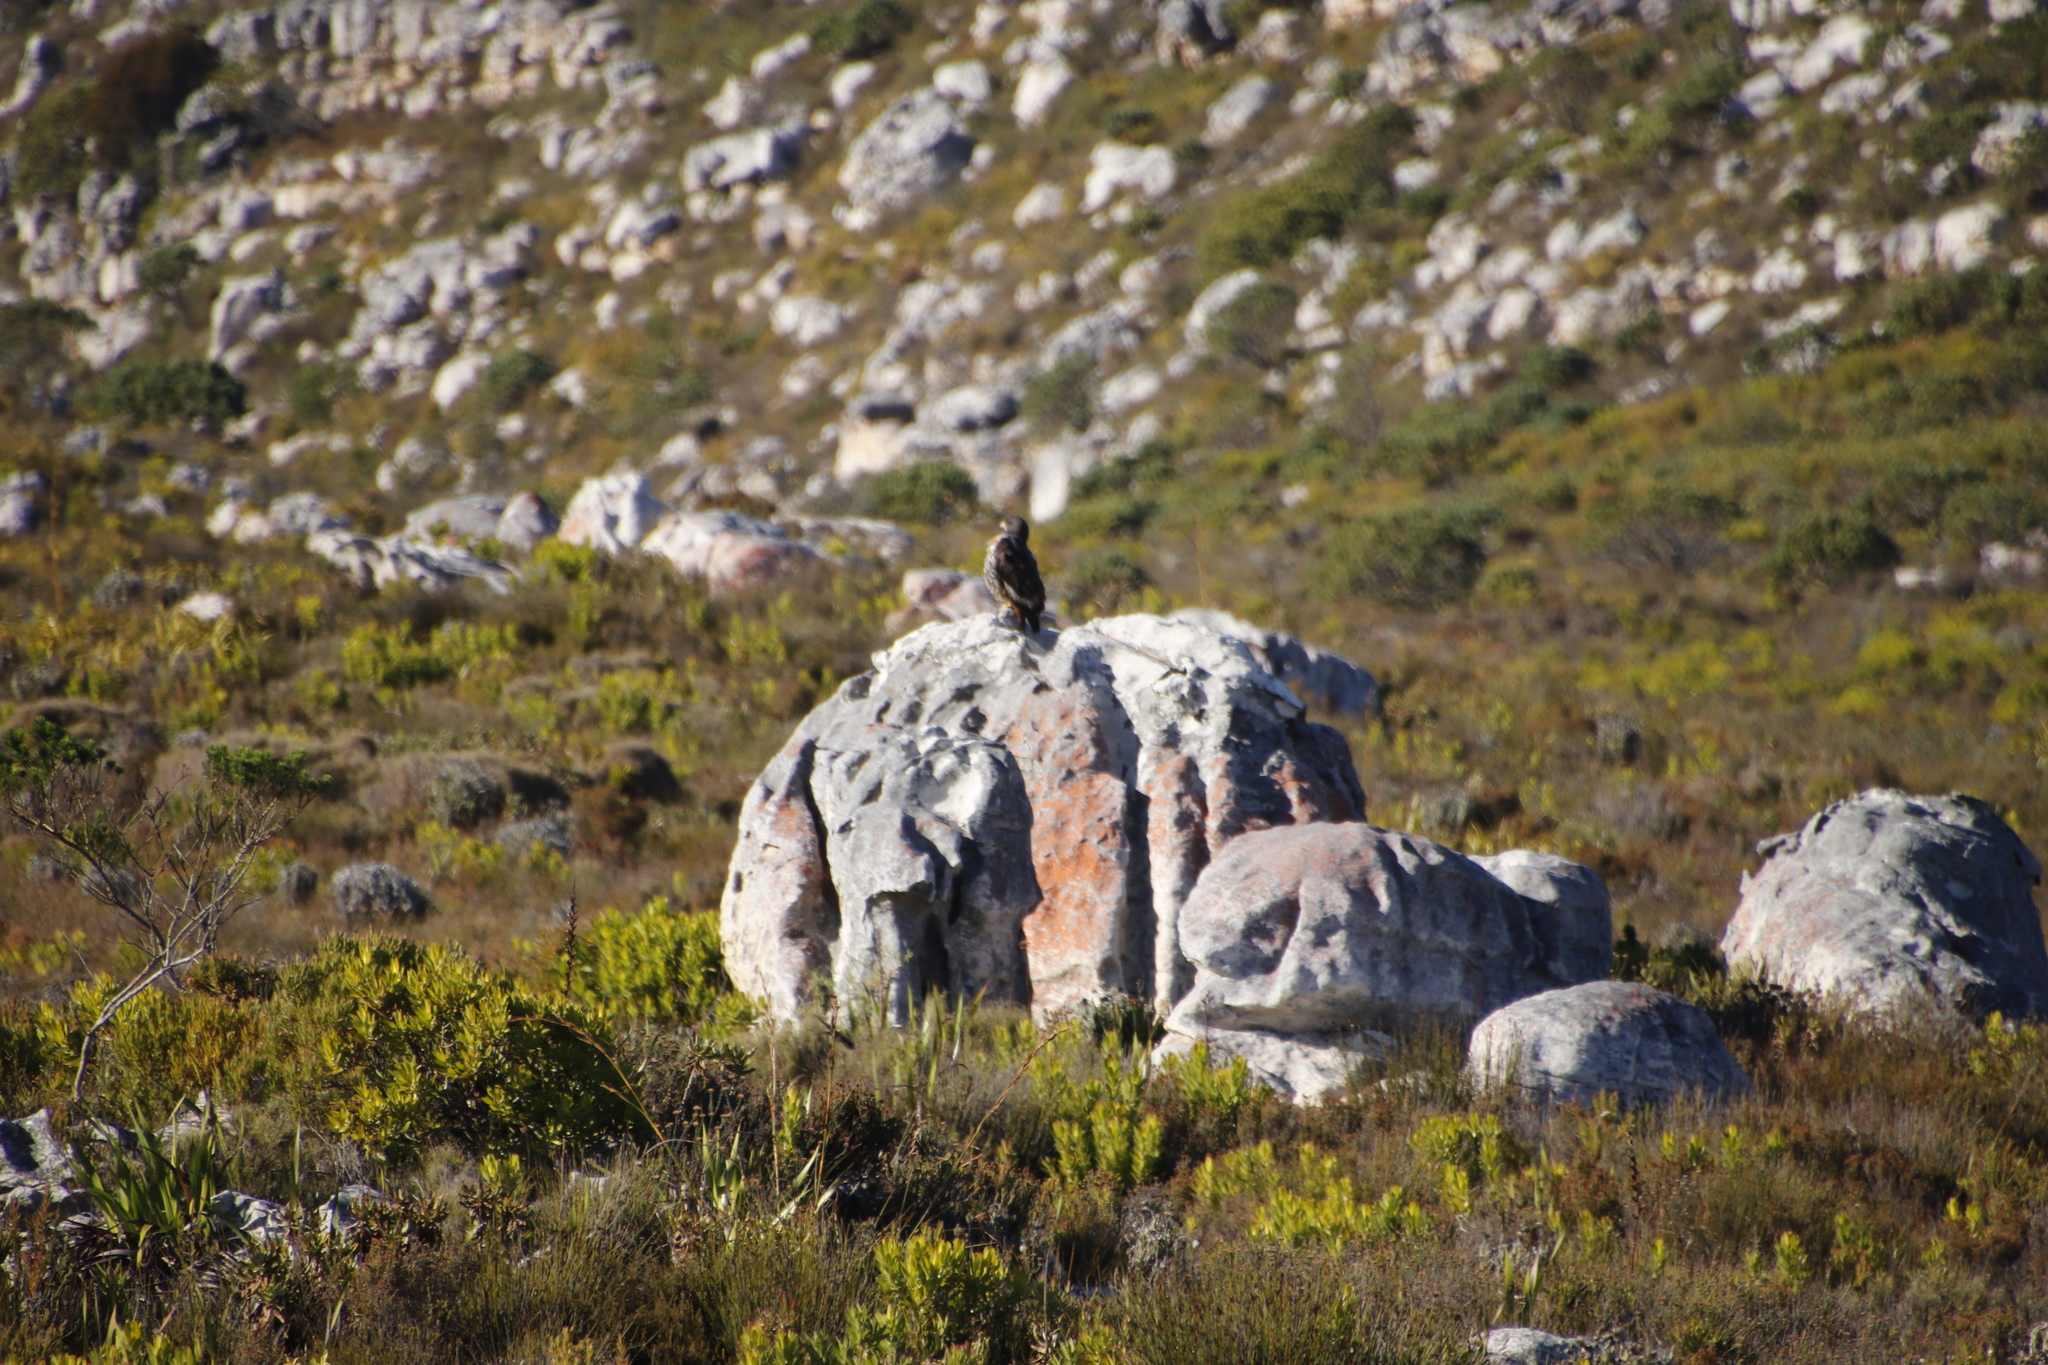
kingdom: Animalia
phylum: Chordata
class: Aves
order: Accipitriformes
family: Accipitridae
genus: Buteo
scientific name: Buteo rufofuscus
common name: Jackal buzzard
